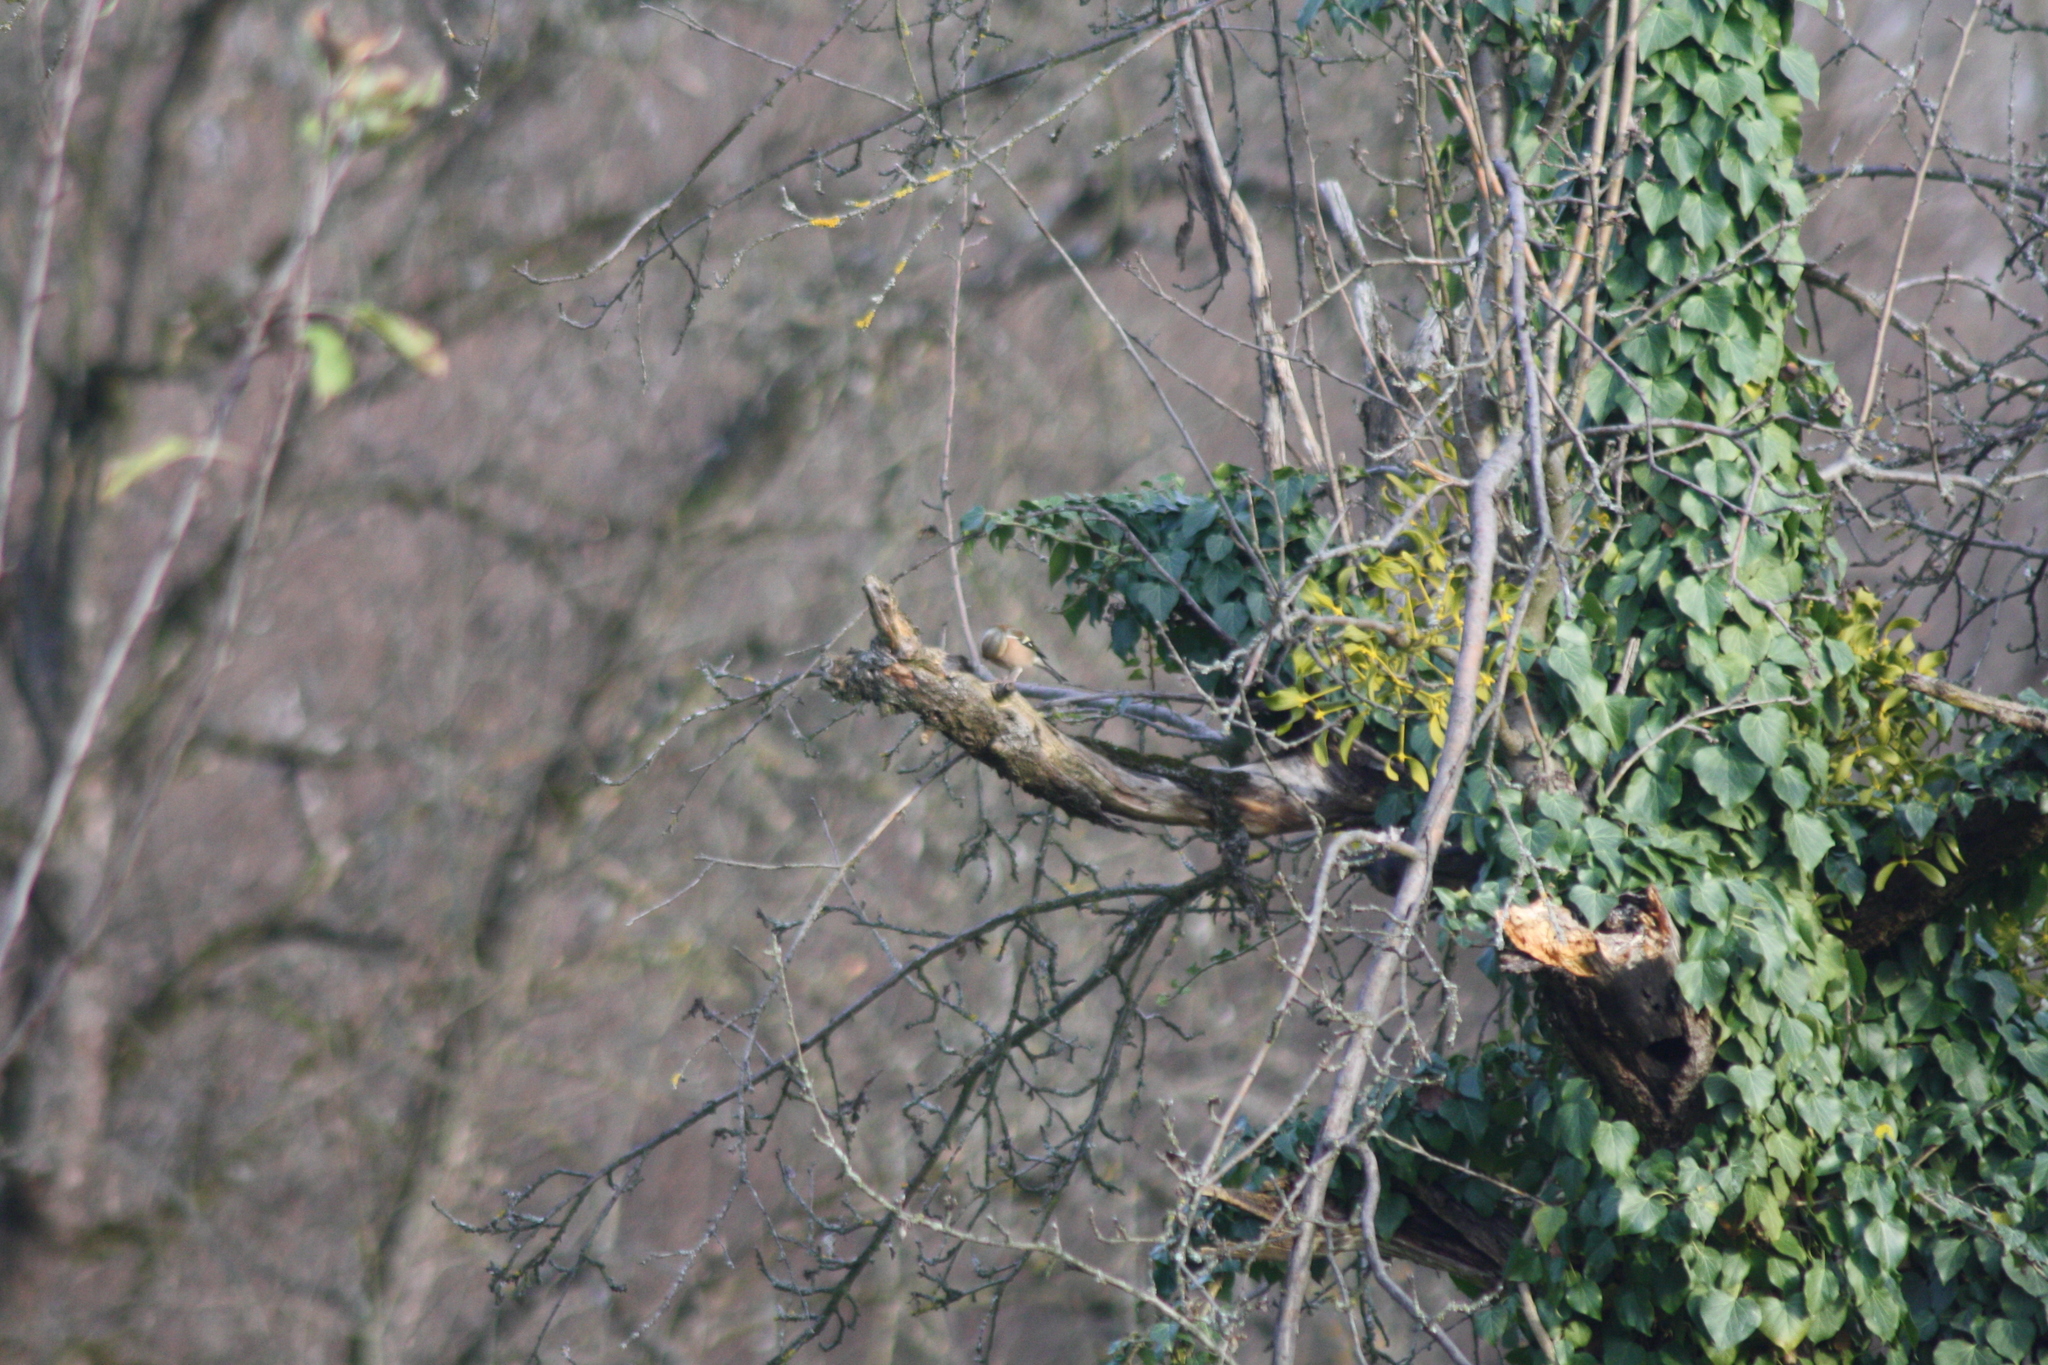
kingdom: Animalia
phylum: Chordata
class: Aves
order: Passeriformes
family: Fringillidae
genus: Fringilla
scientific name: Fringilla coelebs
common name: Common chaffinch
